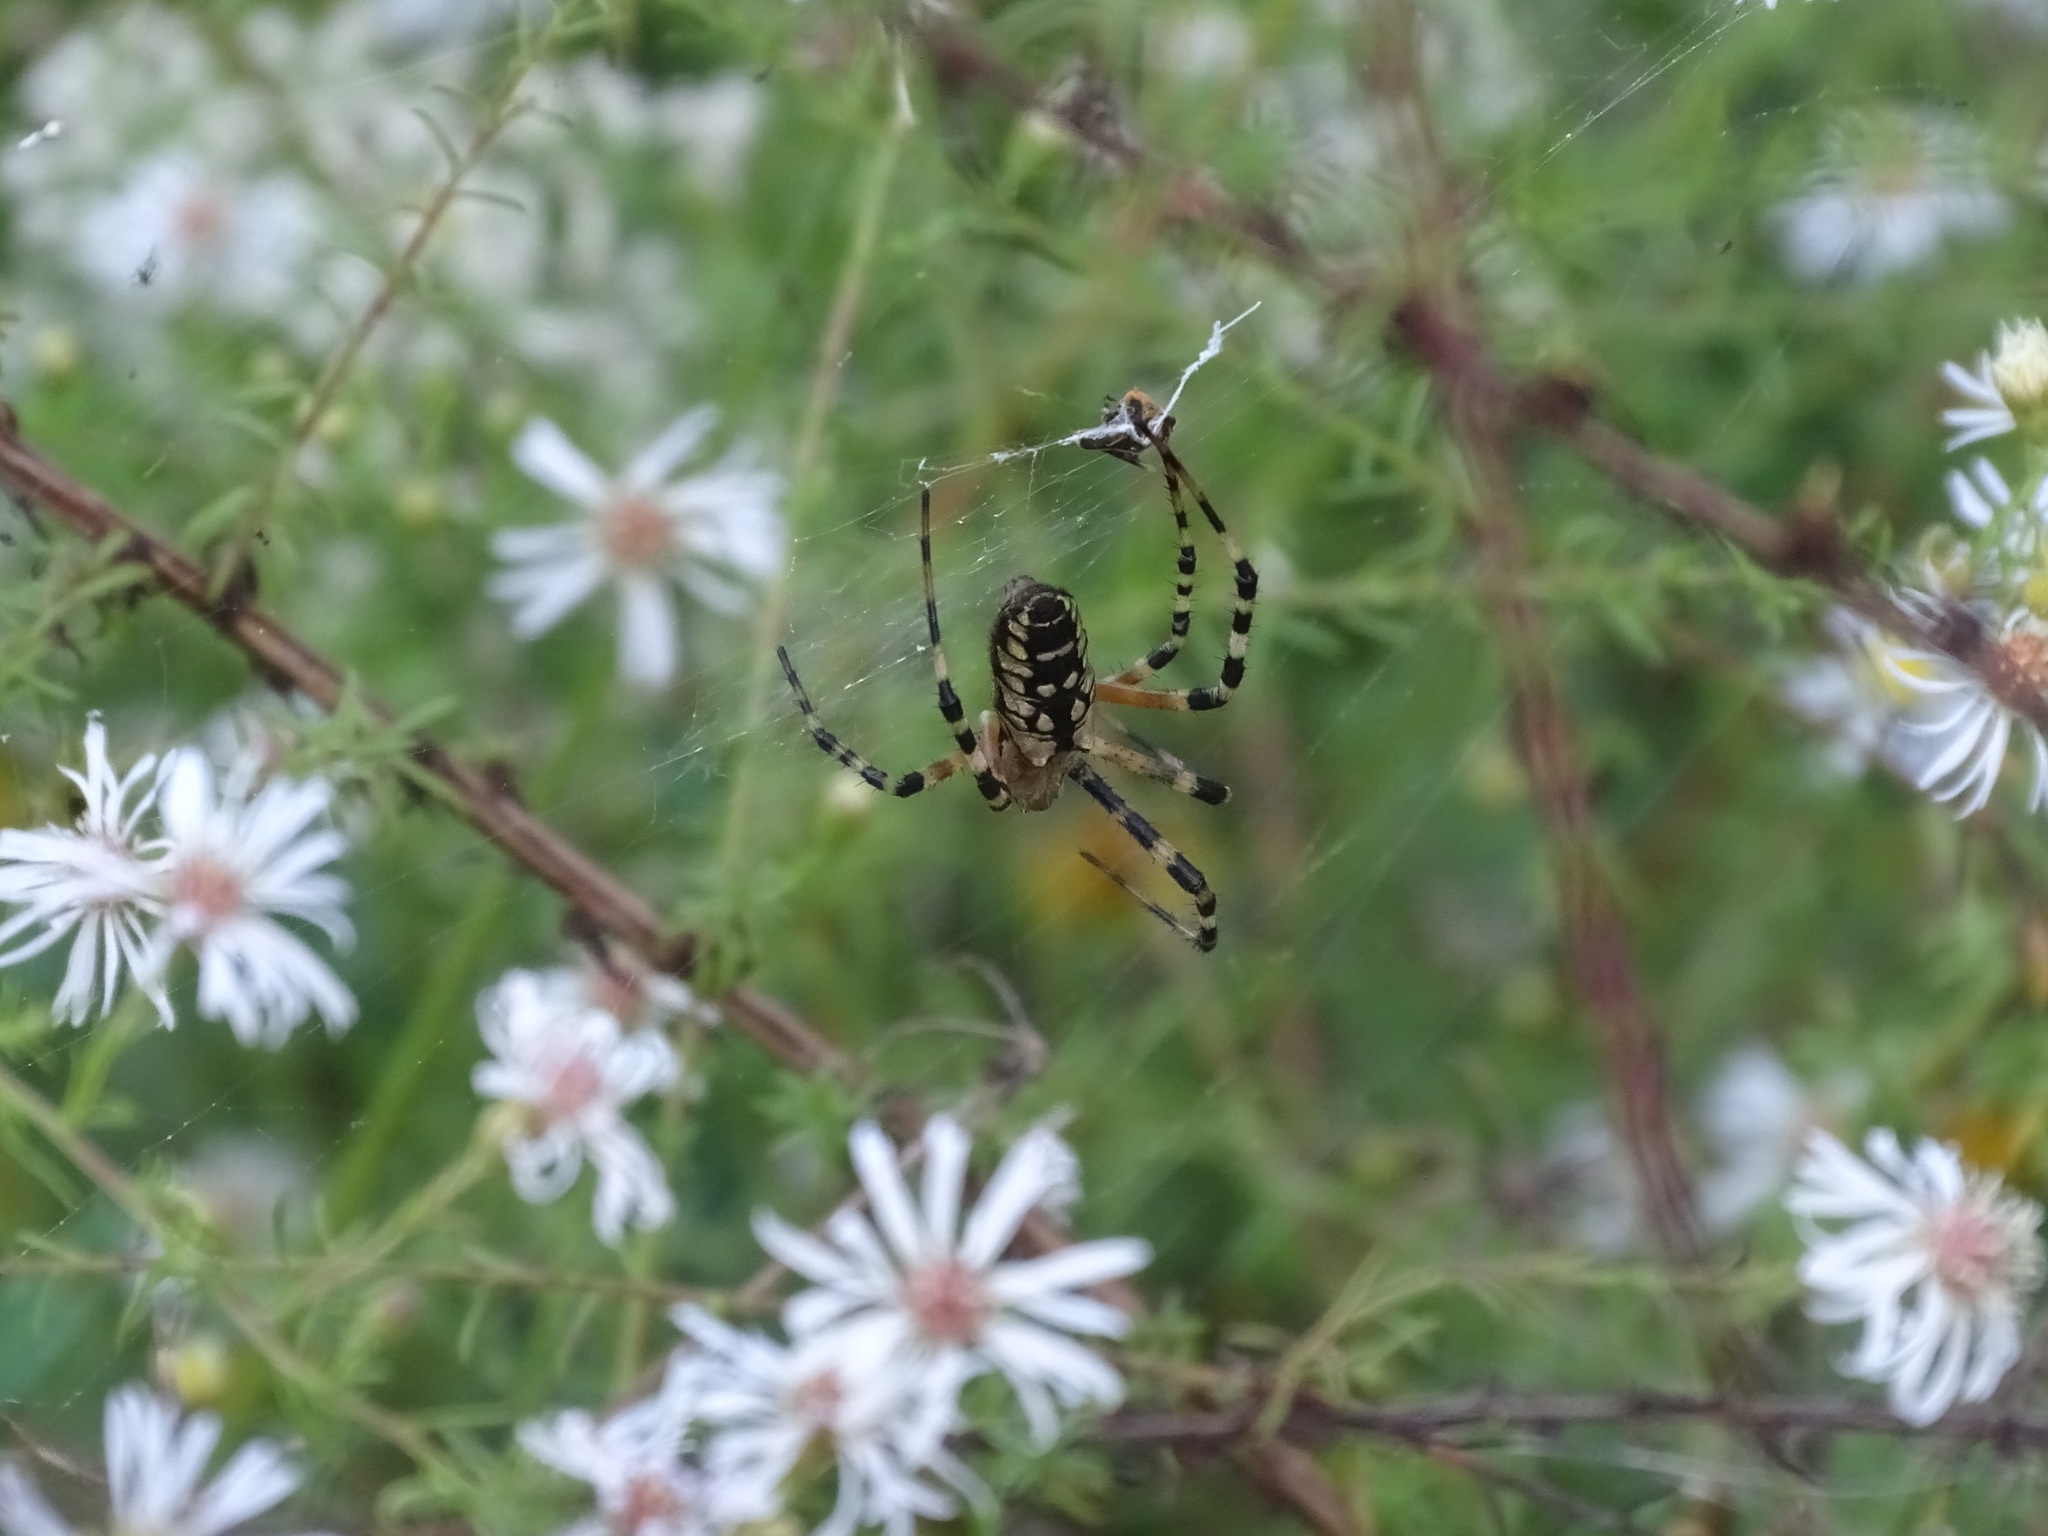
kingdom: Animalia
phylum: Arthropoda
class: Arachnida
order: Araneae
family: Araneidae
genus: Argiope
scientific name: Argiope aurantia
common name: Orb weavers
